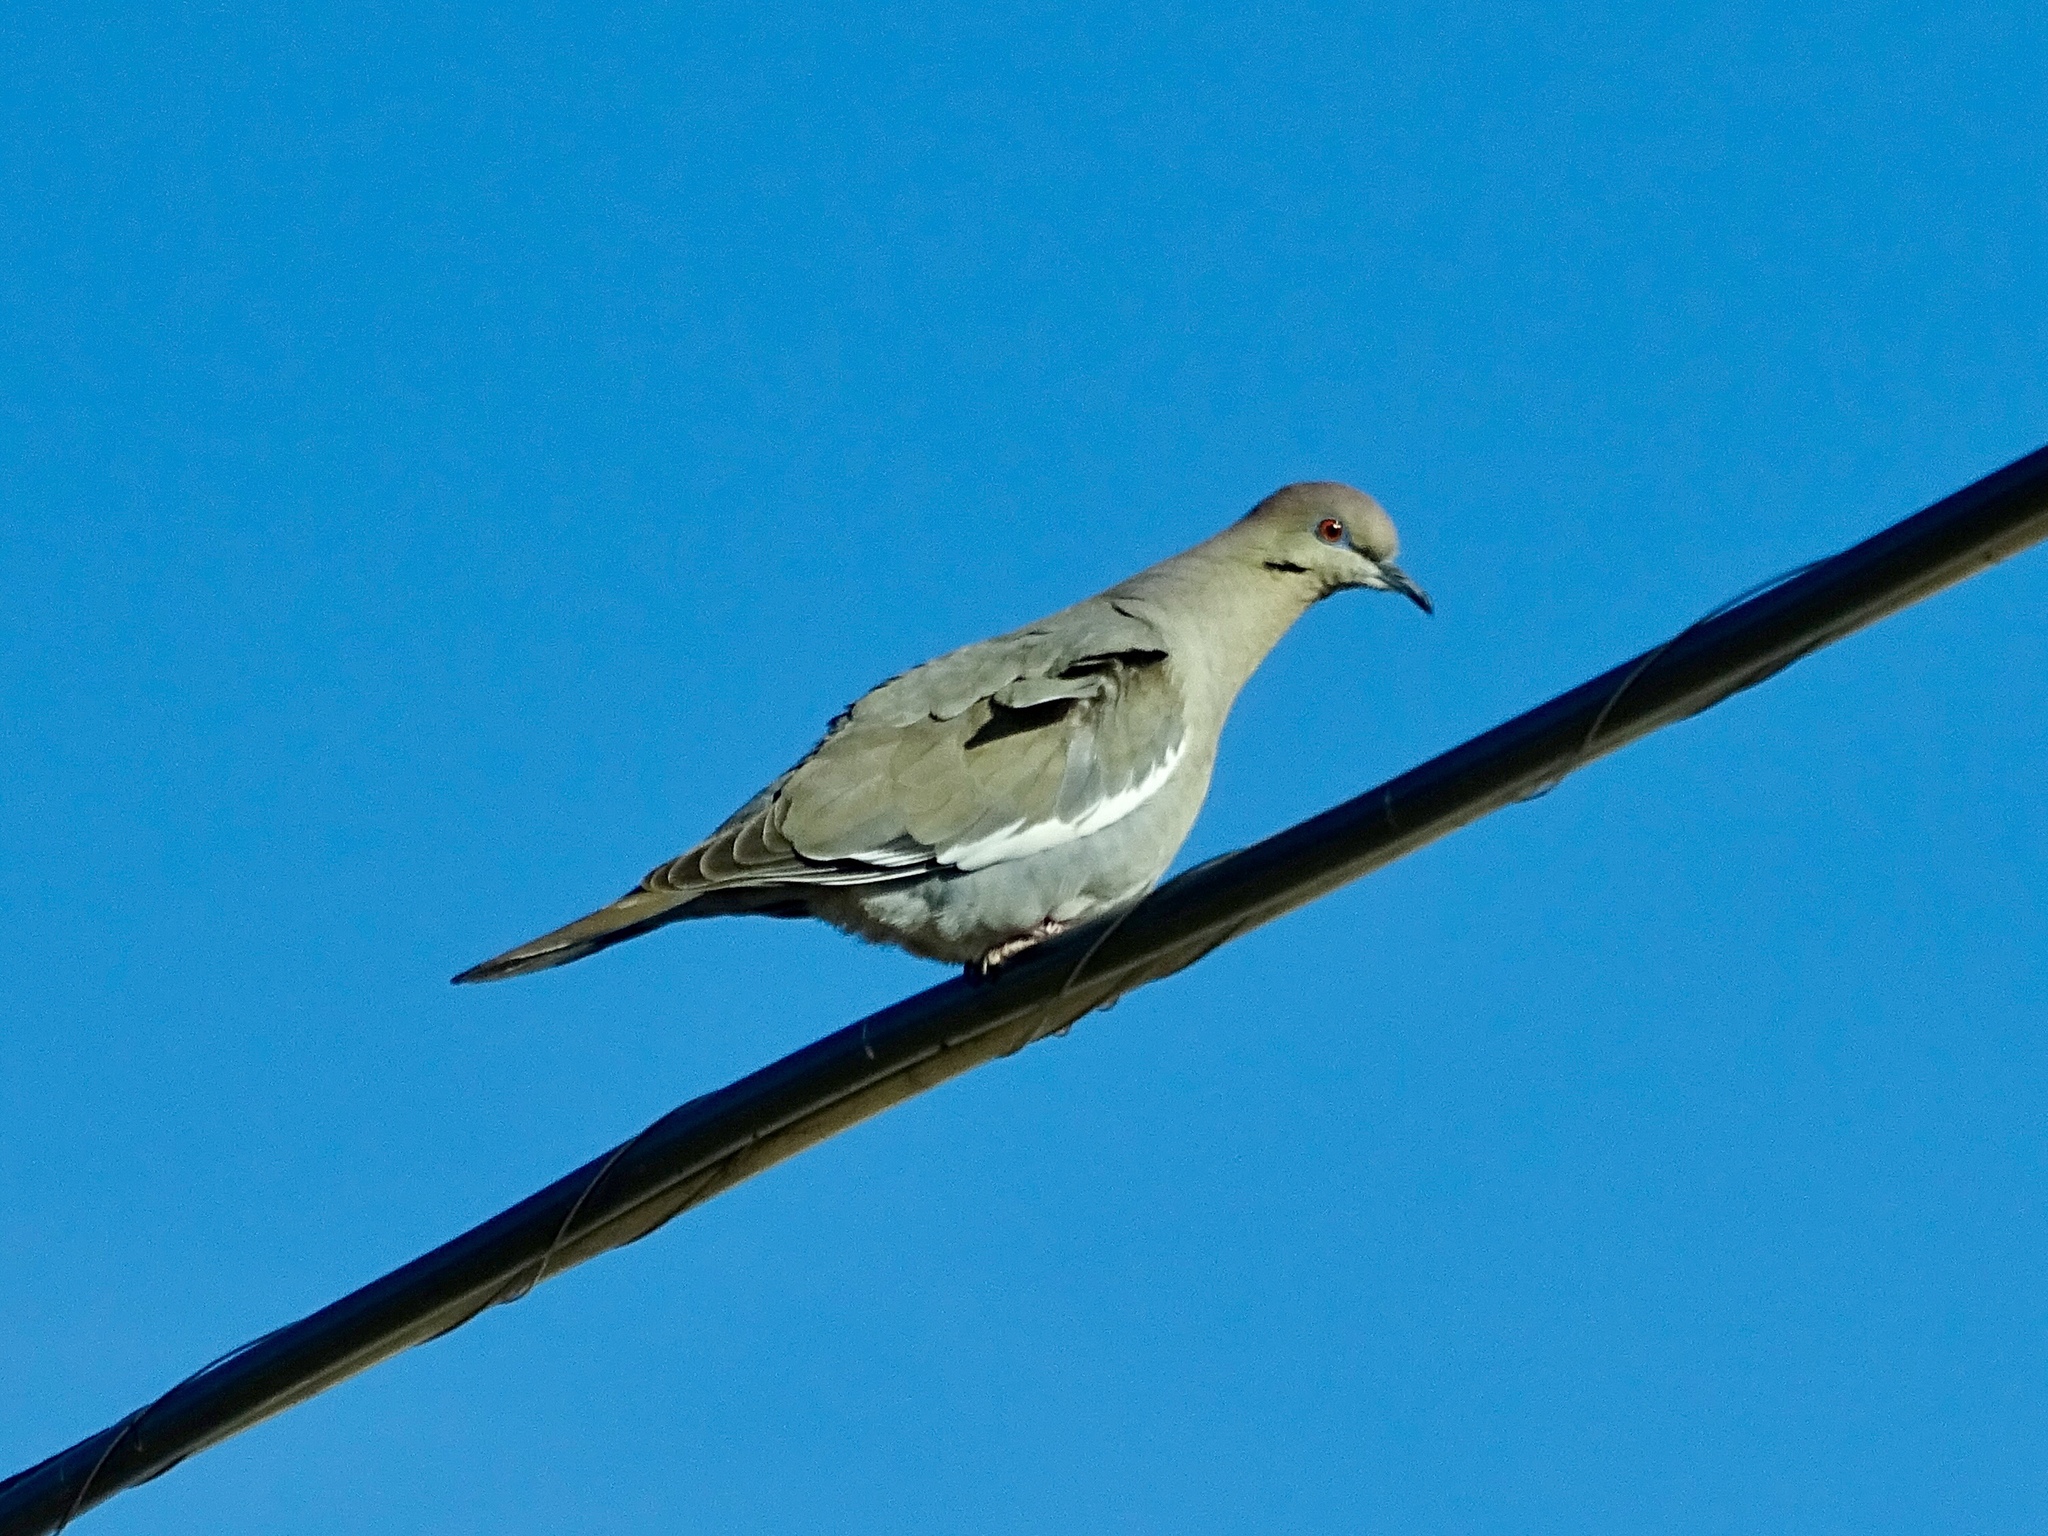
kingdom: Animalia
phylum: Chordata
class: Aves
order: Columbiformes
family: Columbidae
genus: Zenaida
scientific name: Zenaida asiatica
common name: White-winged dove
